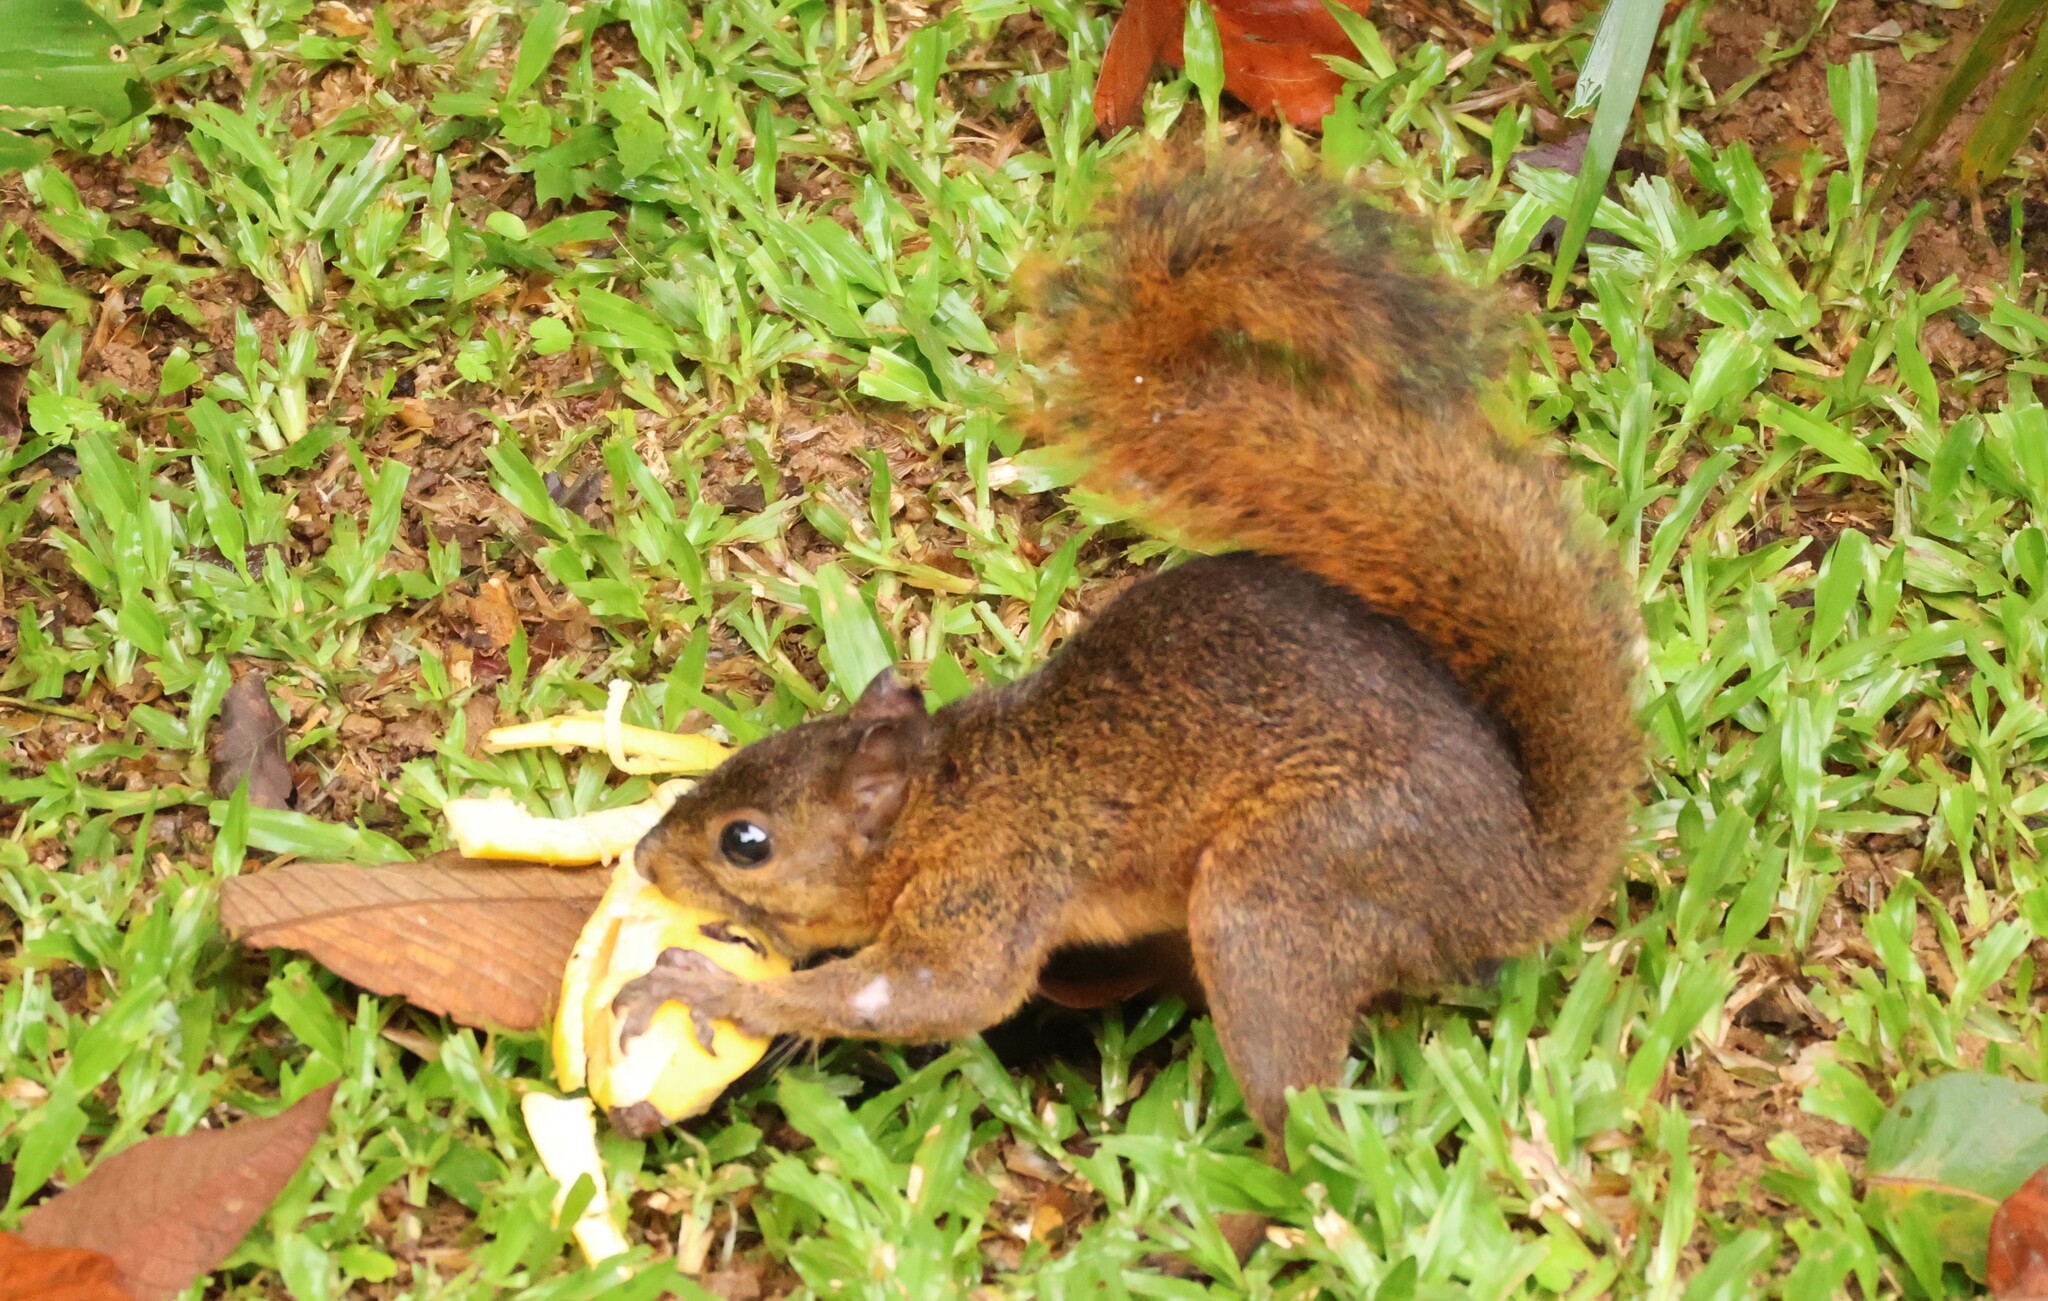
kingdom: Animalia
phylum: Chordata
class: Mammalia
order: Rodentia
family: Sciuridae
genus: Sciurus
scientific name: Sciurus granatensis
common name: Red-tailed squirrel
